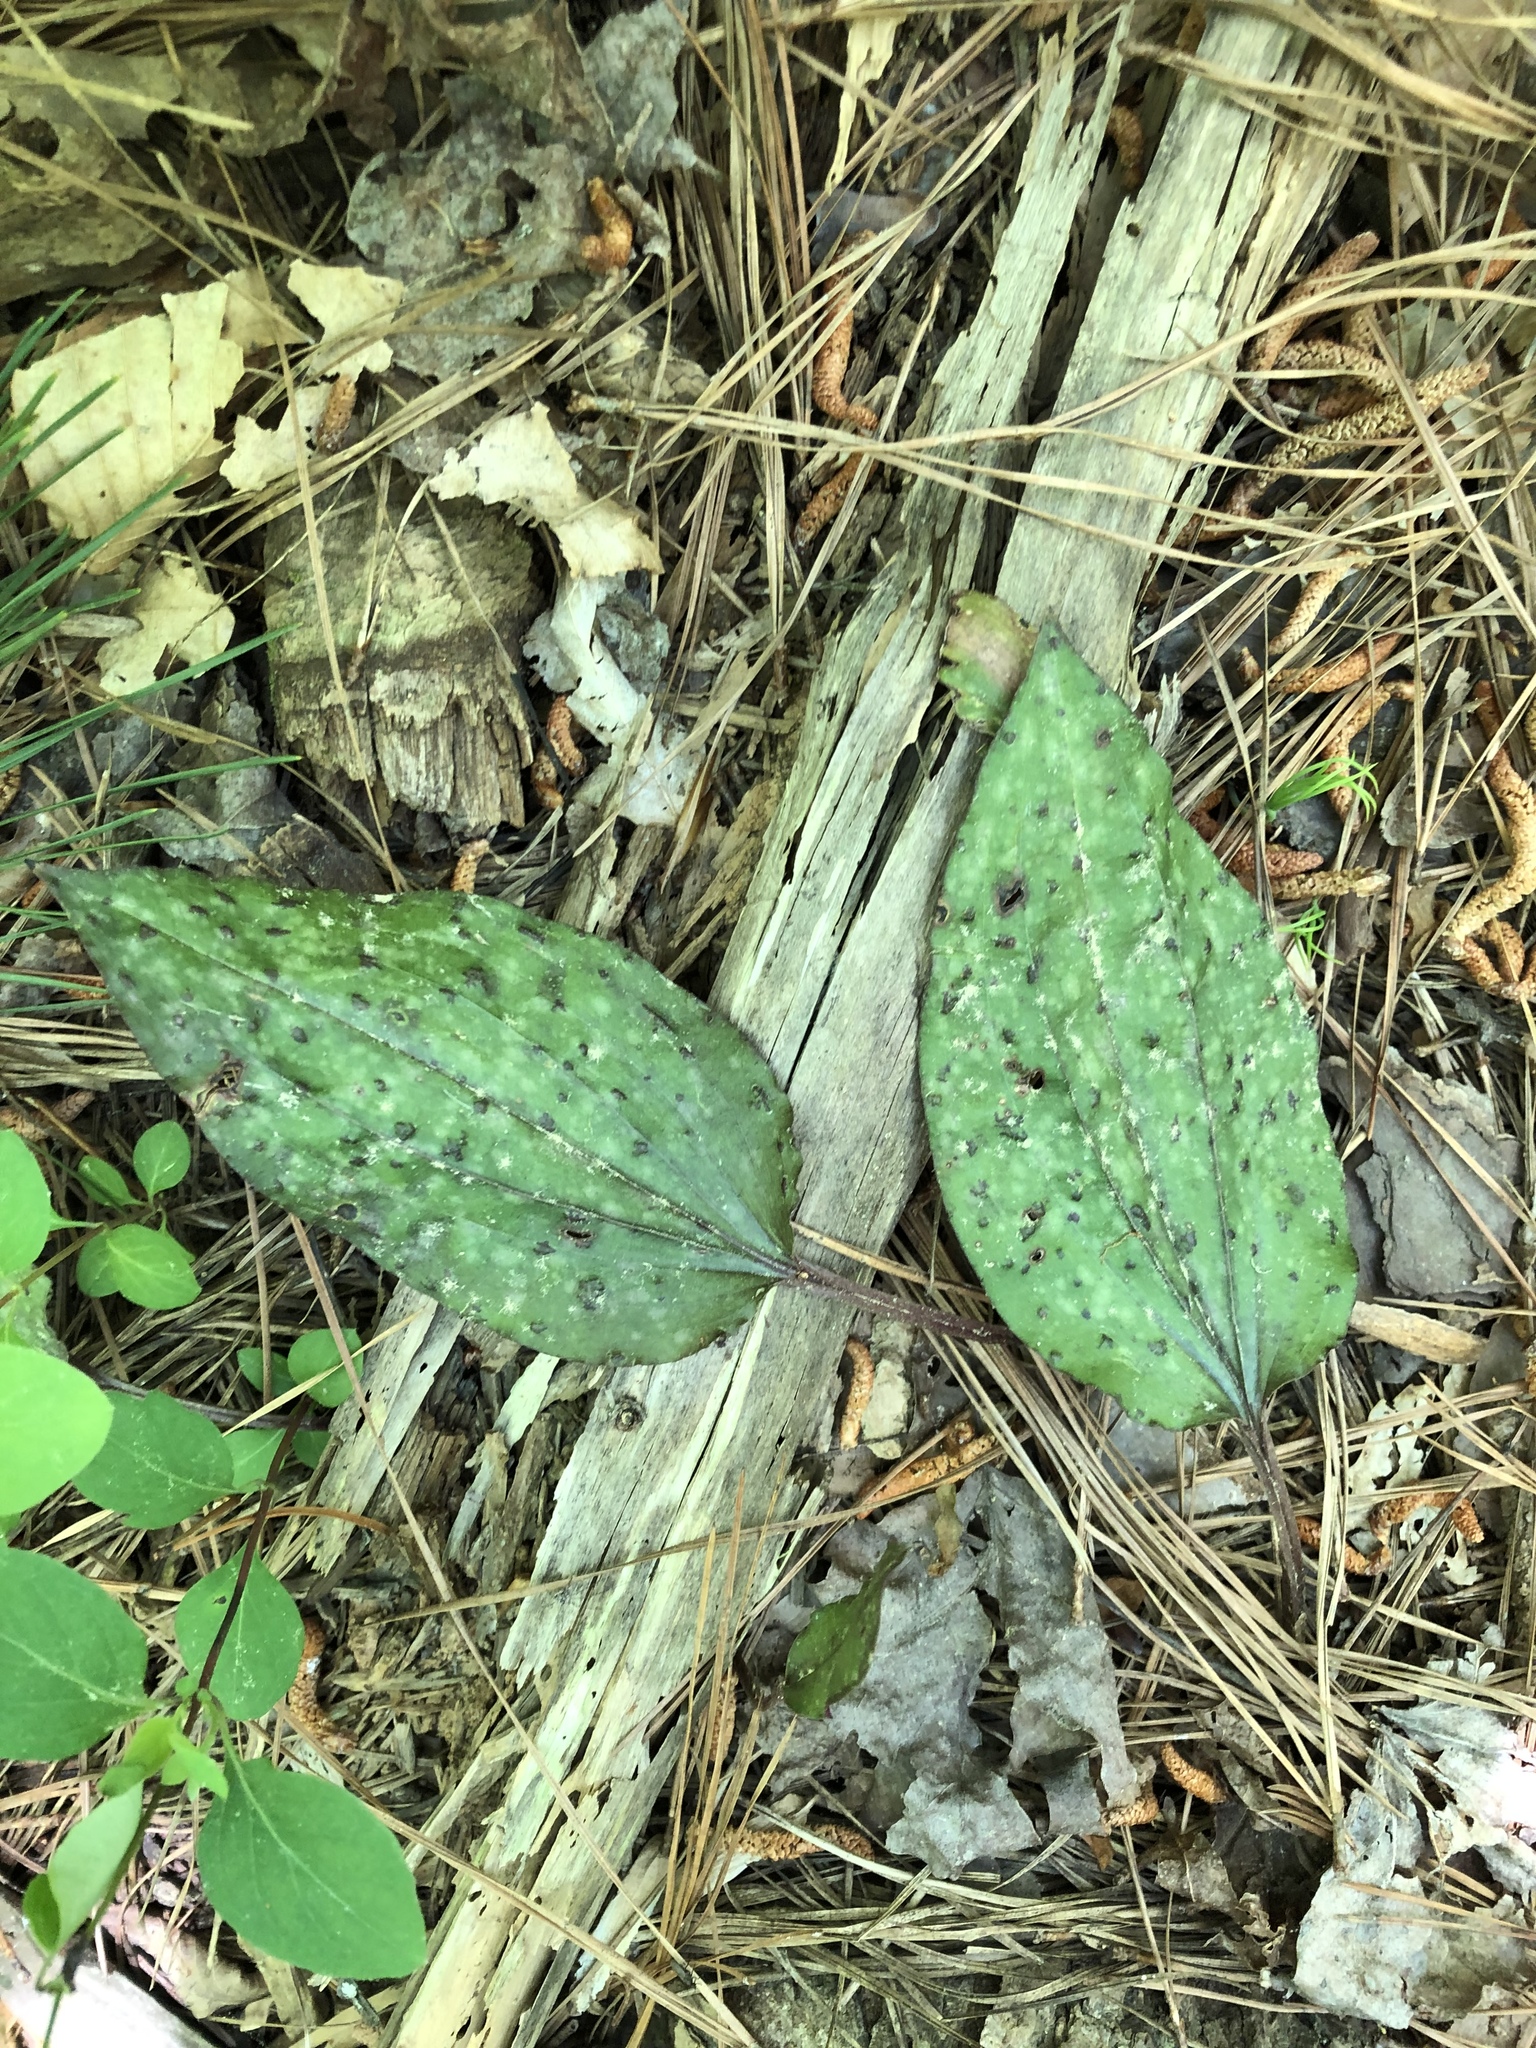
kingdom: Plantae
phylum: Tracheophyta
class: Liliopsida
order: Asparagales
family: Orchidaceae
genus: Tipularia
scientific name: Tipularia discolor
